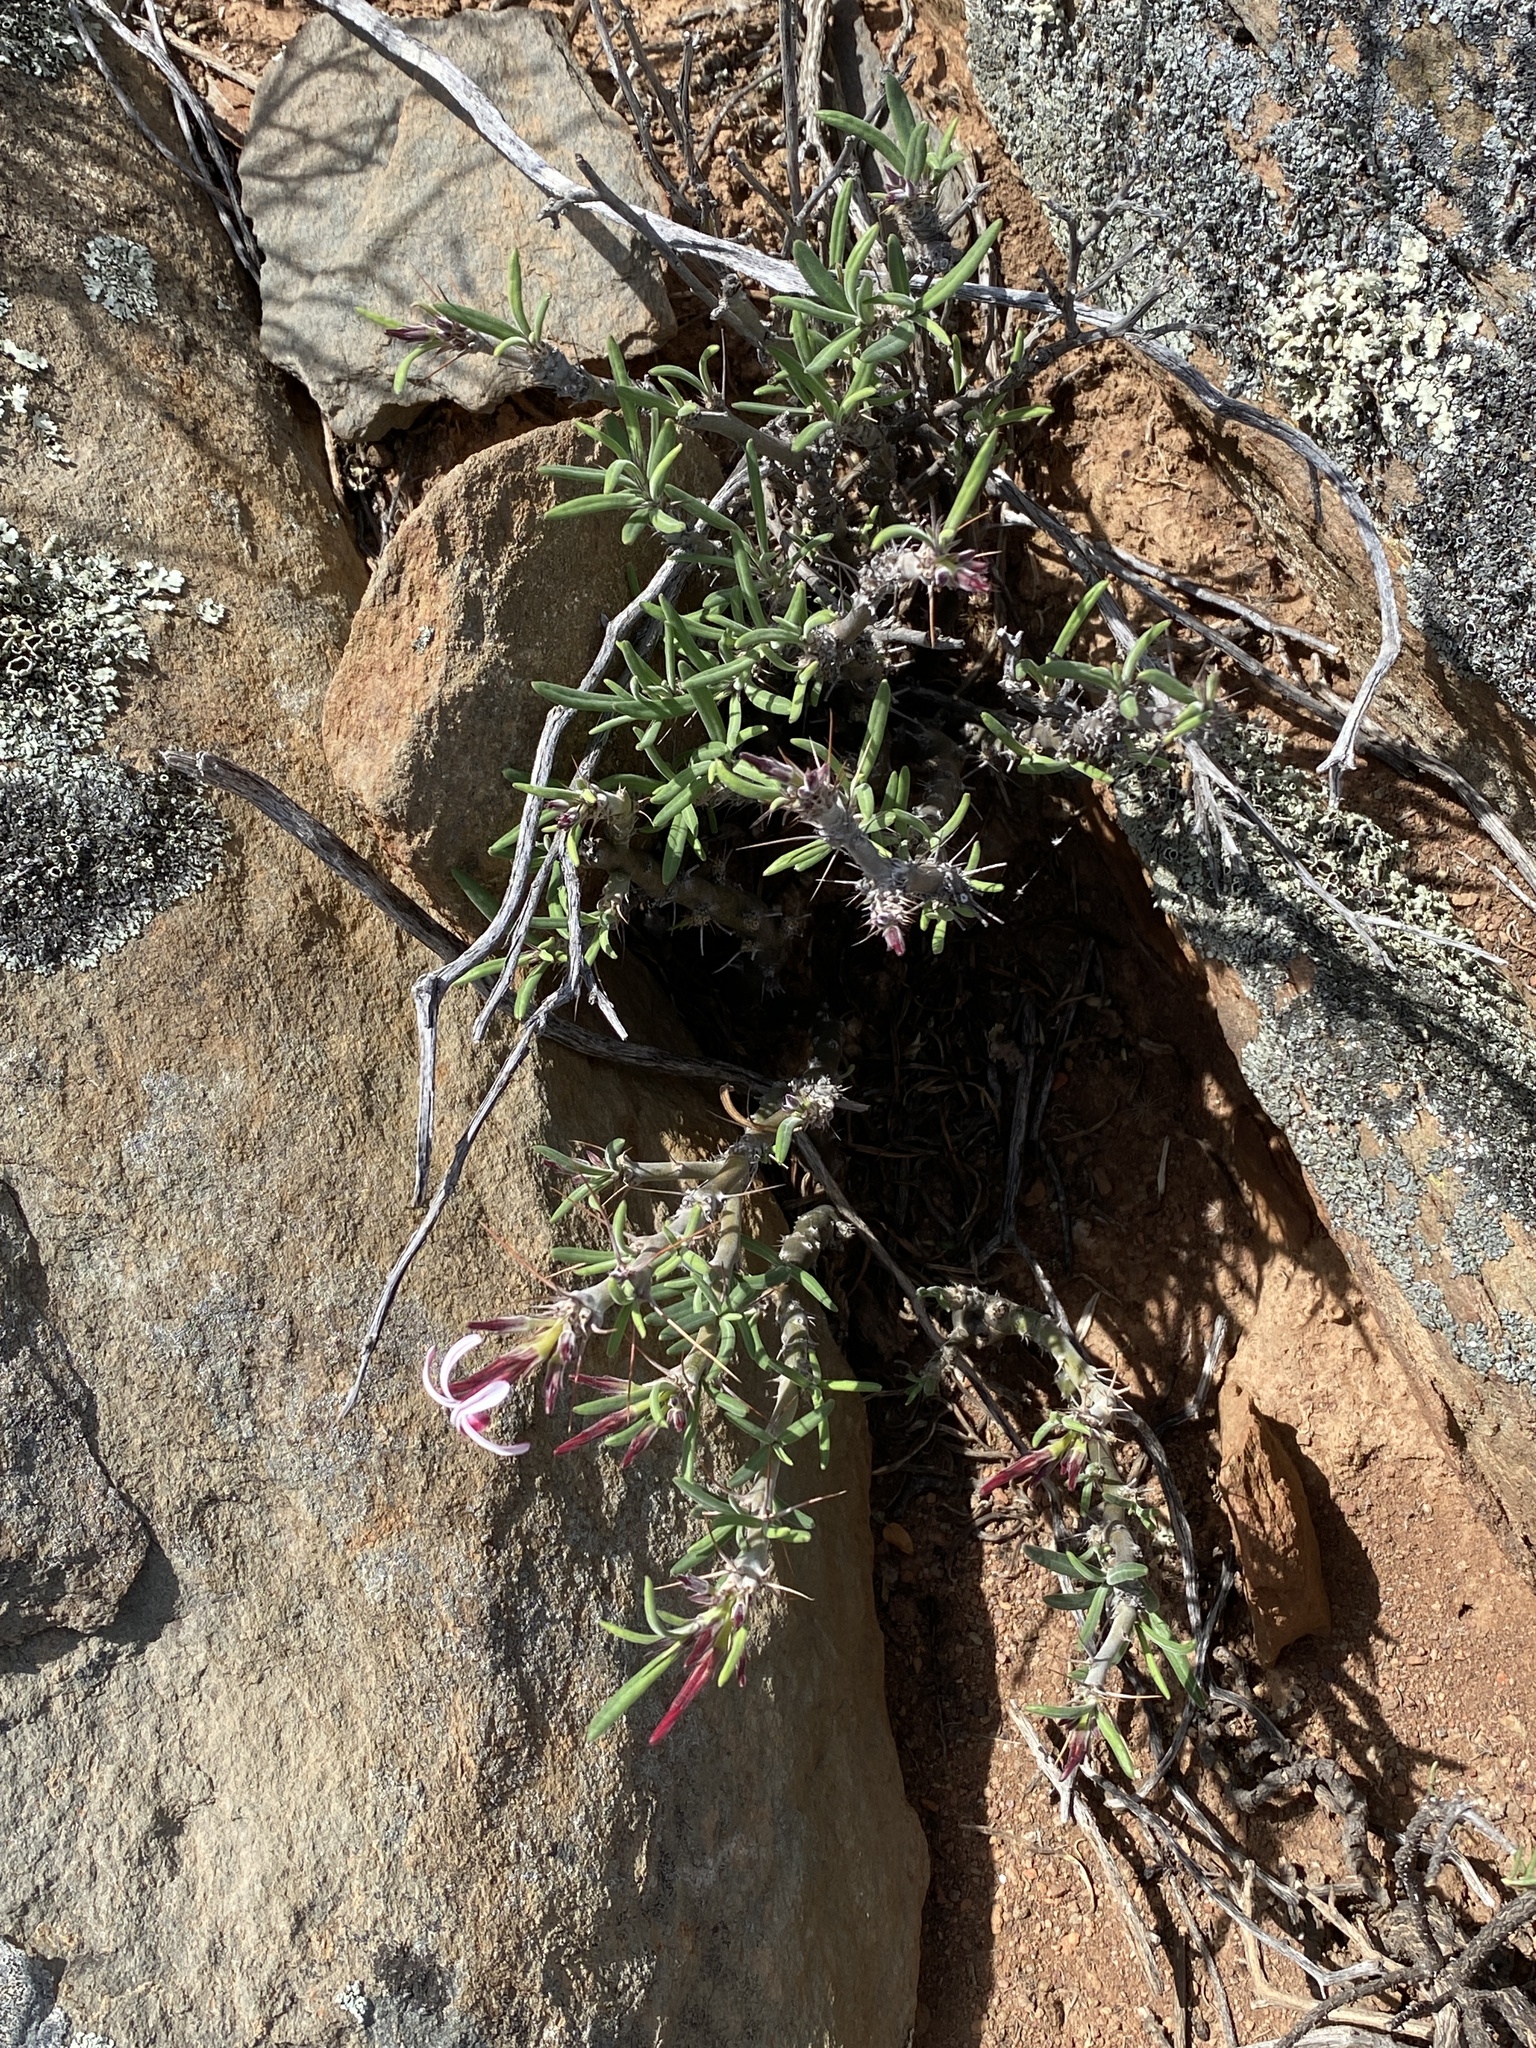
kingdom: Plantae
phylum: Tracheophyta
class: Magnoliopsida
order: Gentianales
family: Apocynaceae
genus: Pachypodium
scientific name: Pachypodium succulentum
